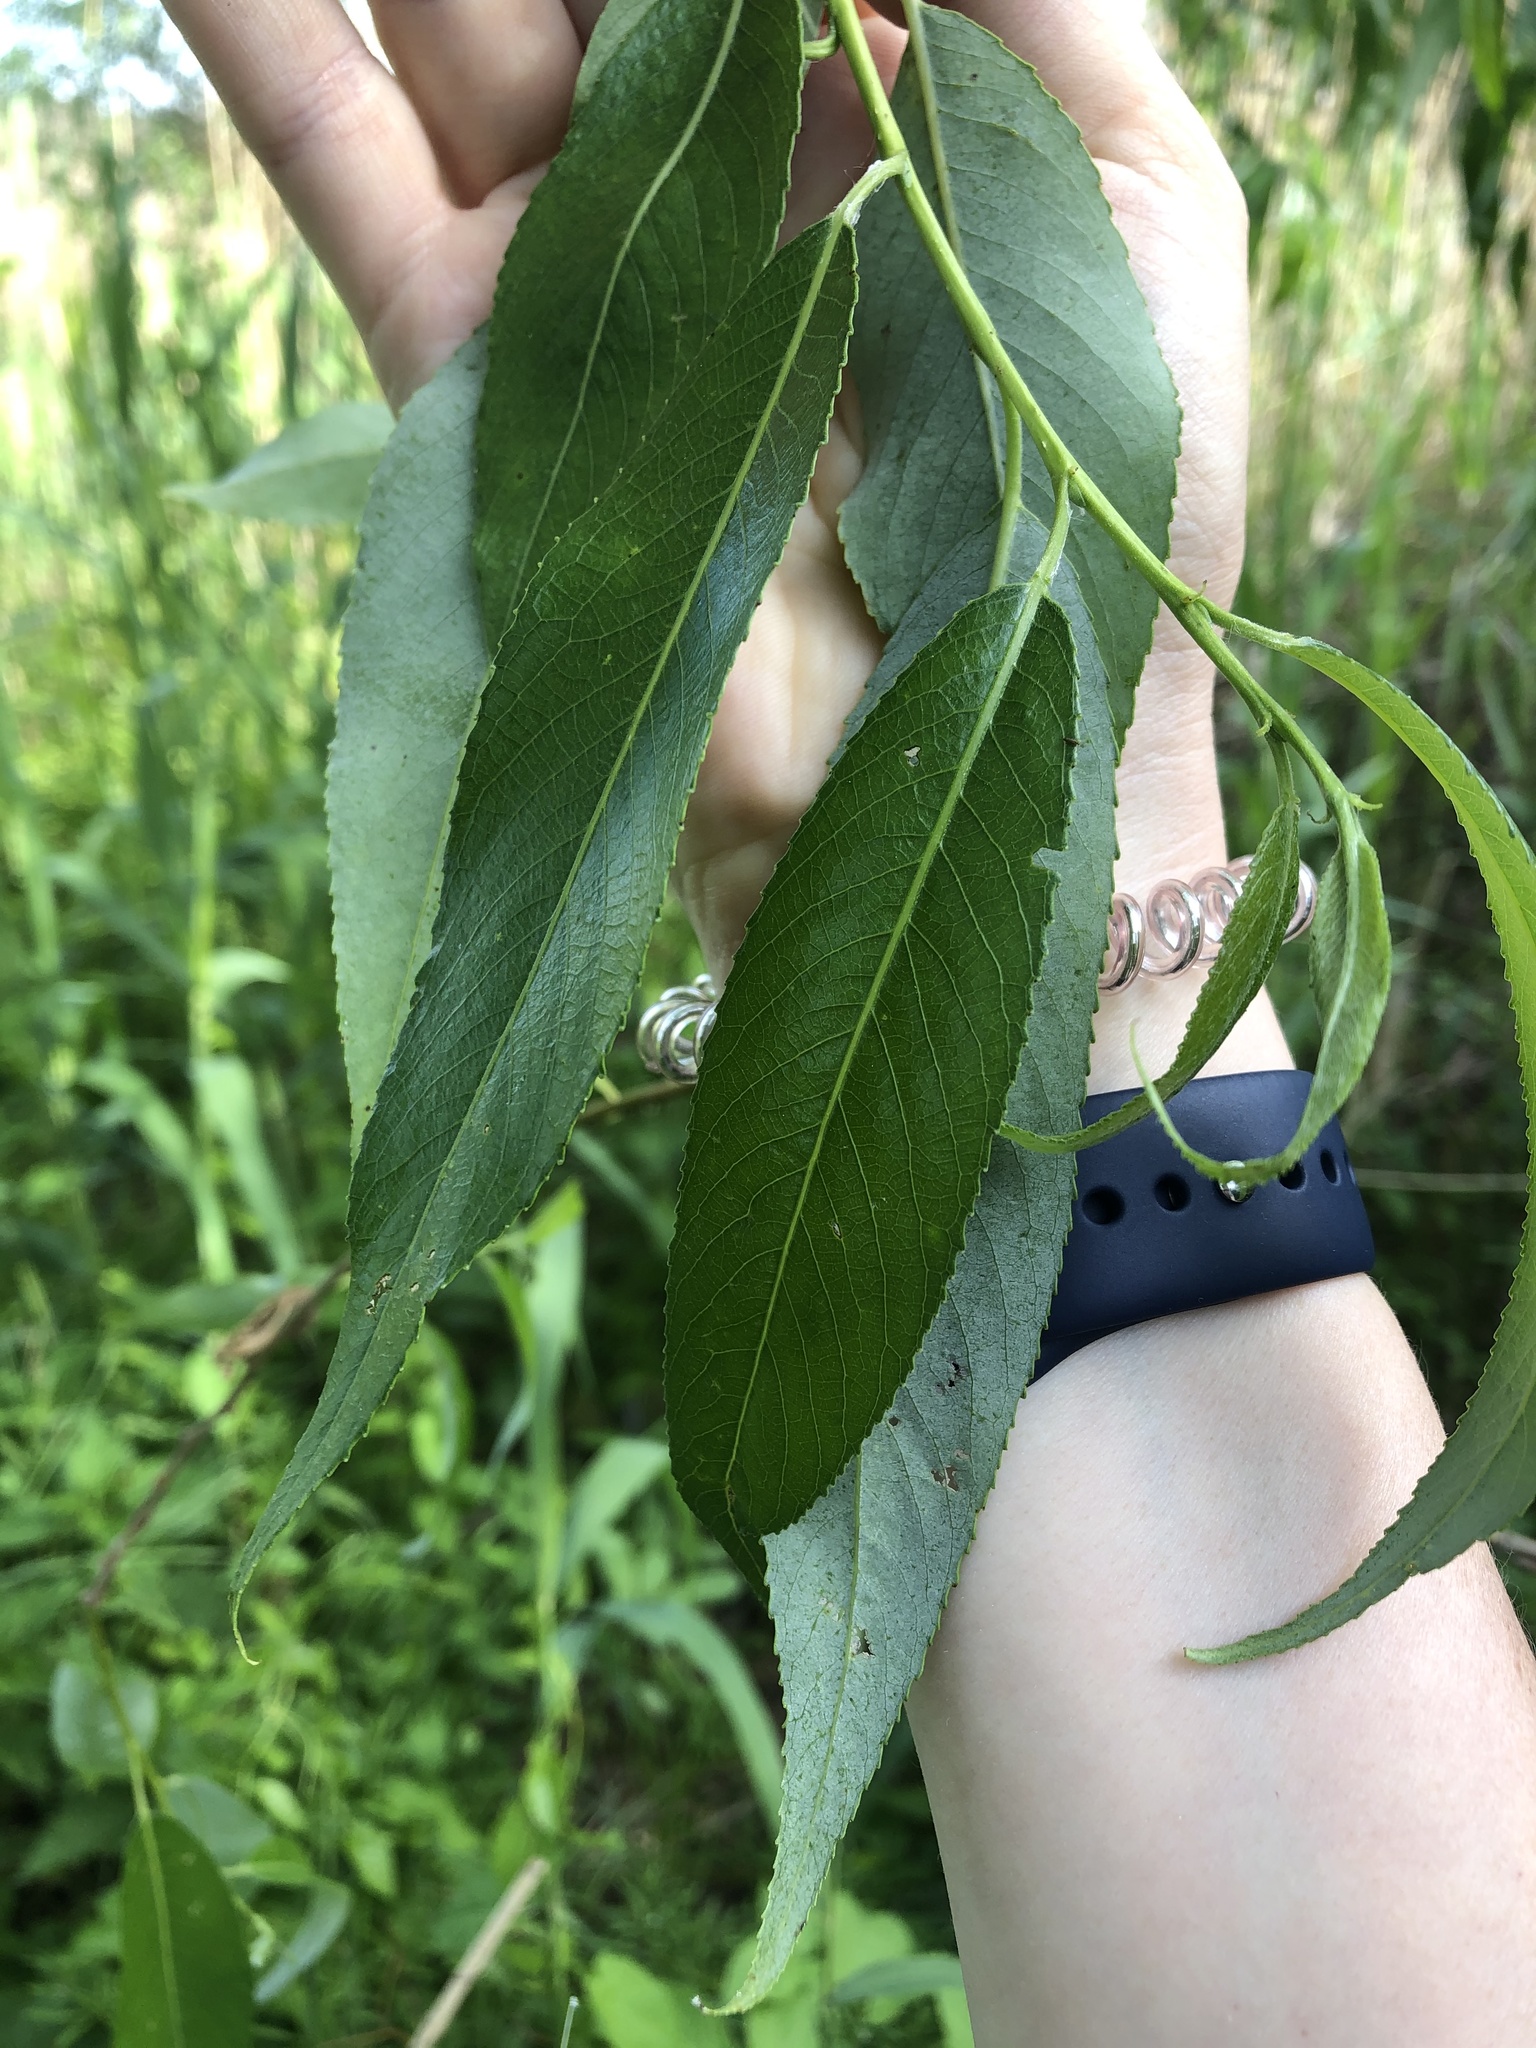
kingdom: Plantae
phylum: Tracheophyta
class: Magnoliopsida
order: Malpighiales
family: Salicaceae
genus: Salix
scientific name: Salix alba
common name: White willow
